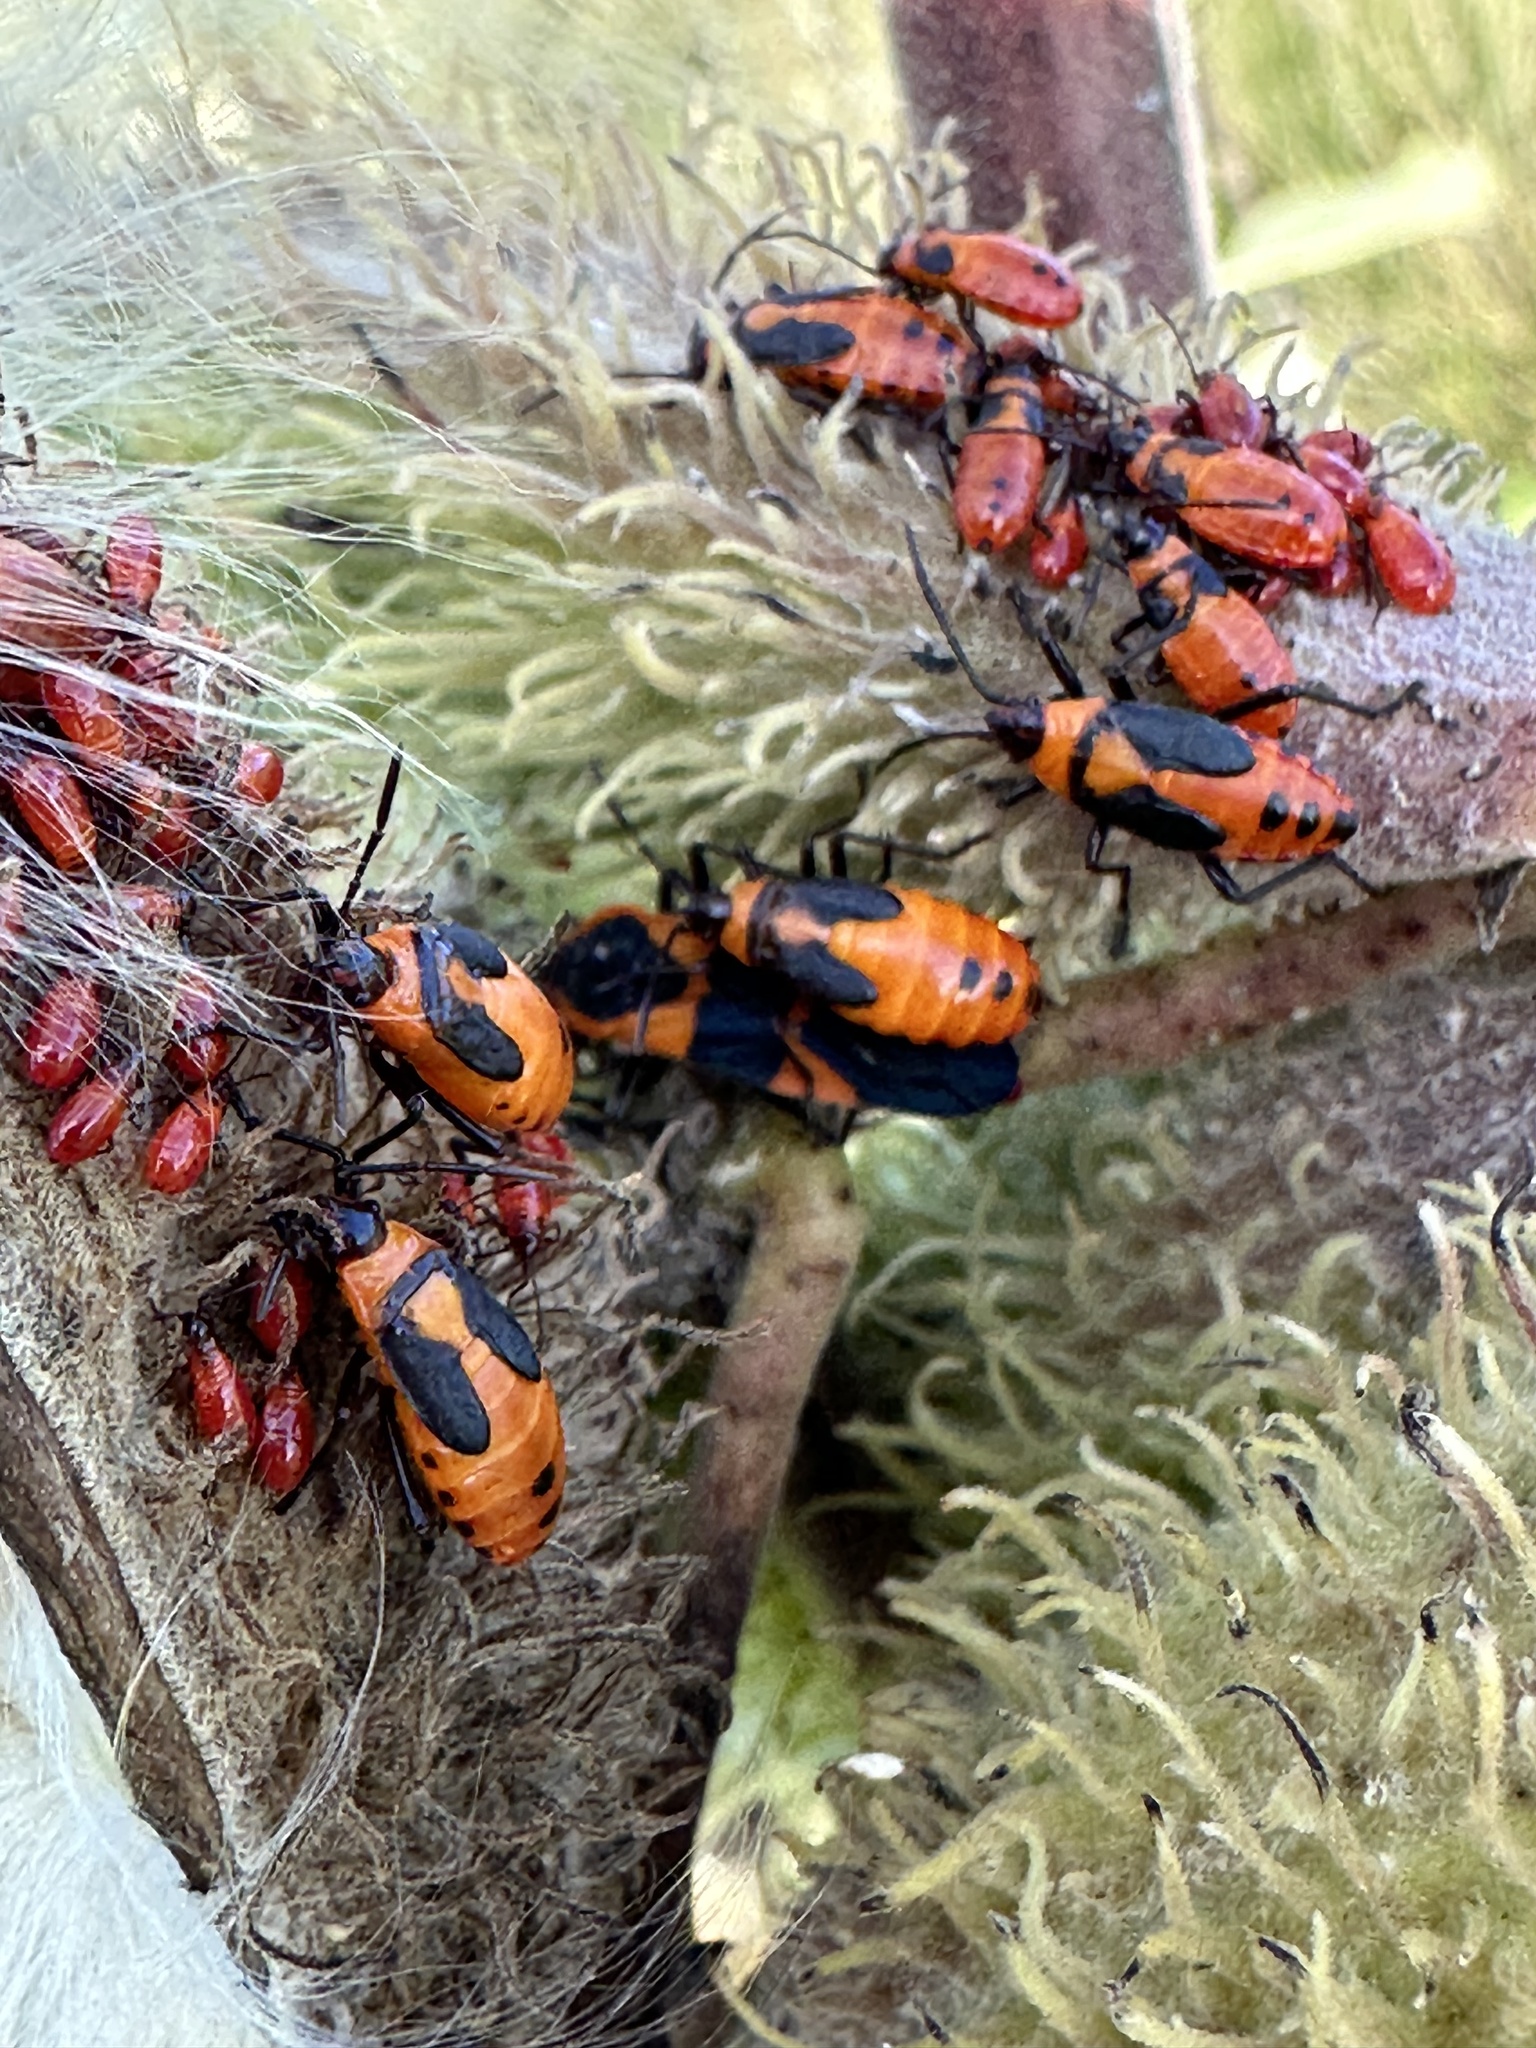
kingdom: Animalia
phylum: Arthropoda
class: Insecta
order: Hemiptera
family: Lygaeidae
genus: Oncopeltus
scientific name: Oncopeltus fasciatus
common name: Large milkweed bug
